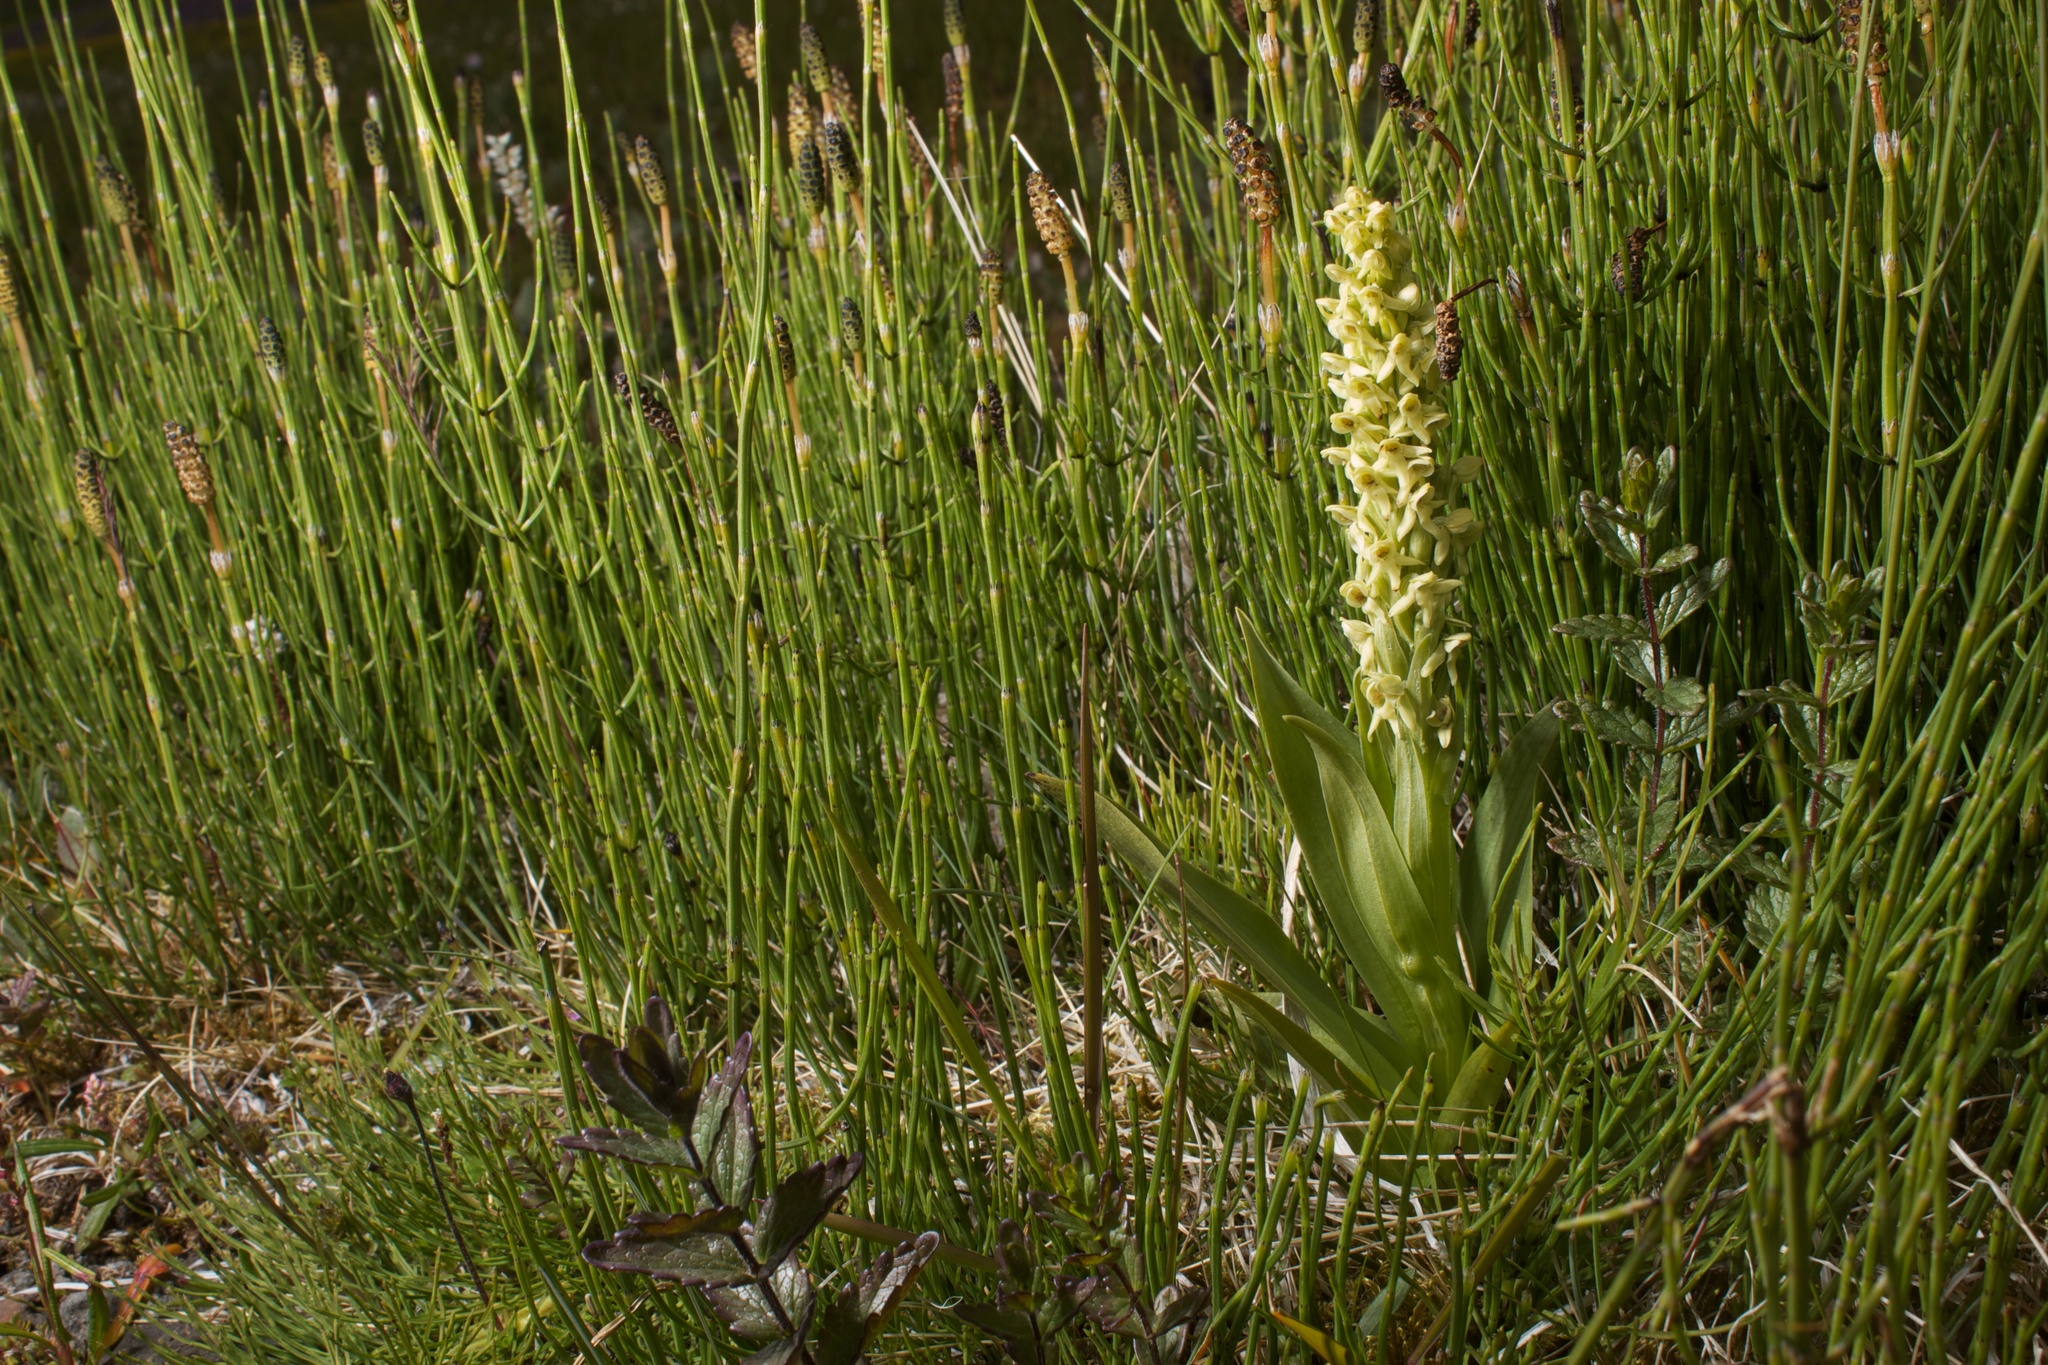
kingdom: Plantae
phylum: Tracheophyta
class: Liliopsida
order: Asparagales
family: Orchidaceae
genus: Platanthera
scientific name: Platanthera hyperborea
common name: Northern green orchid
